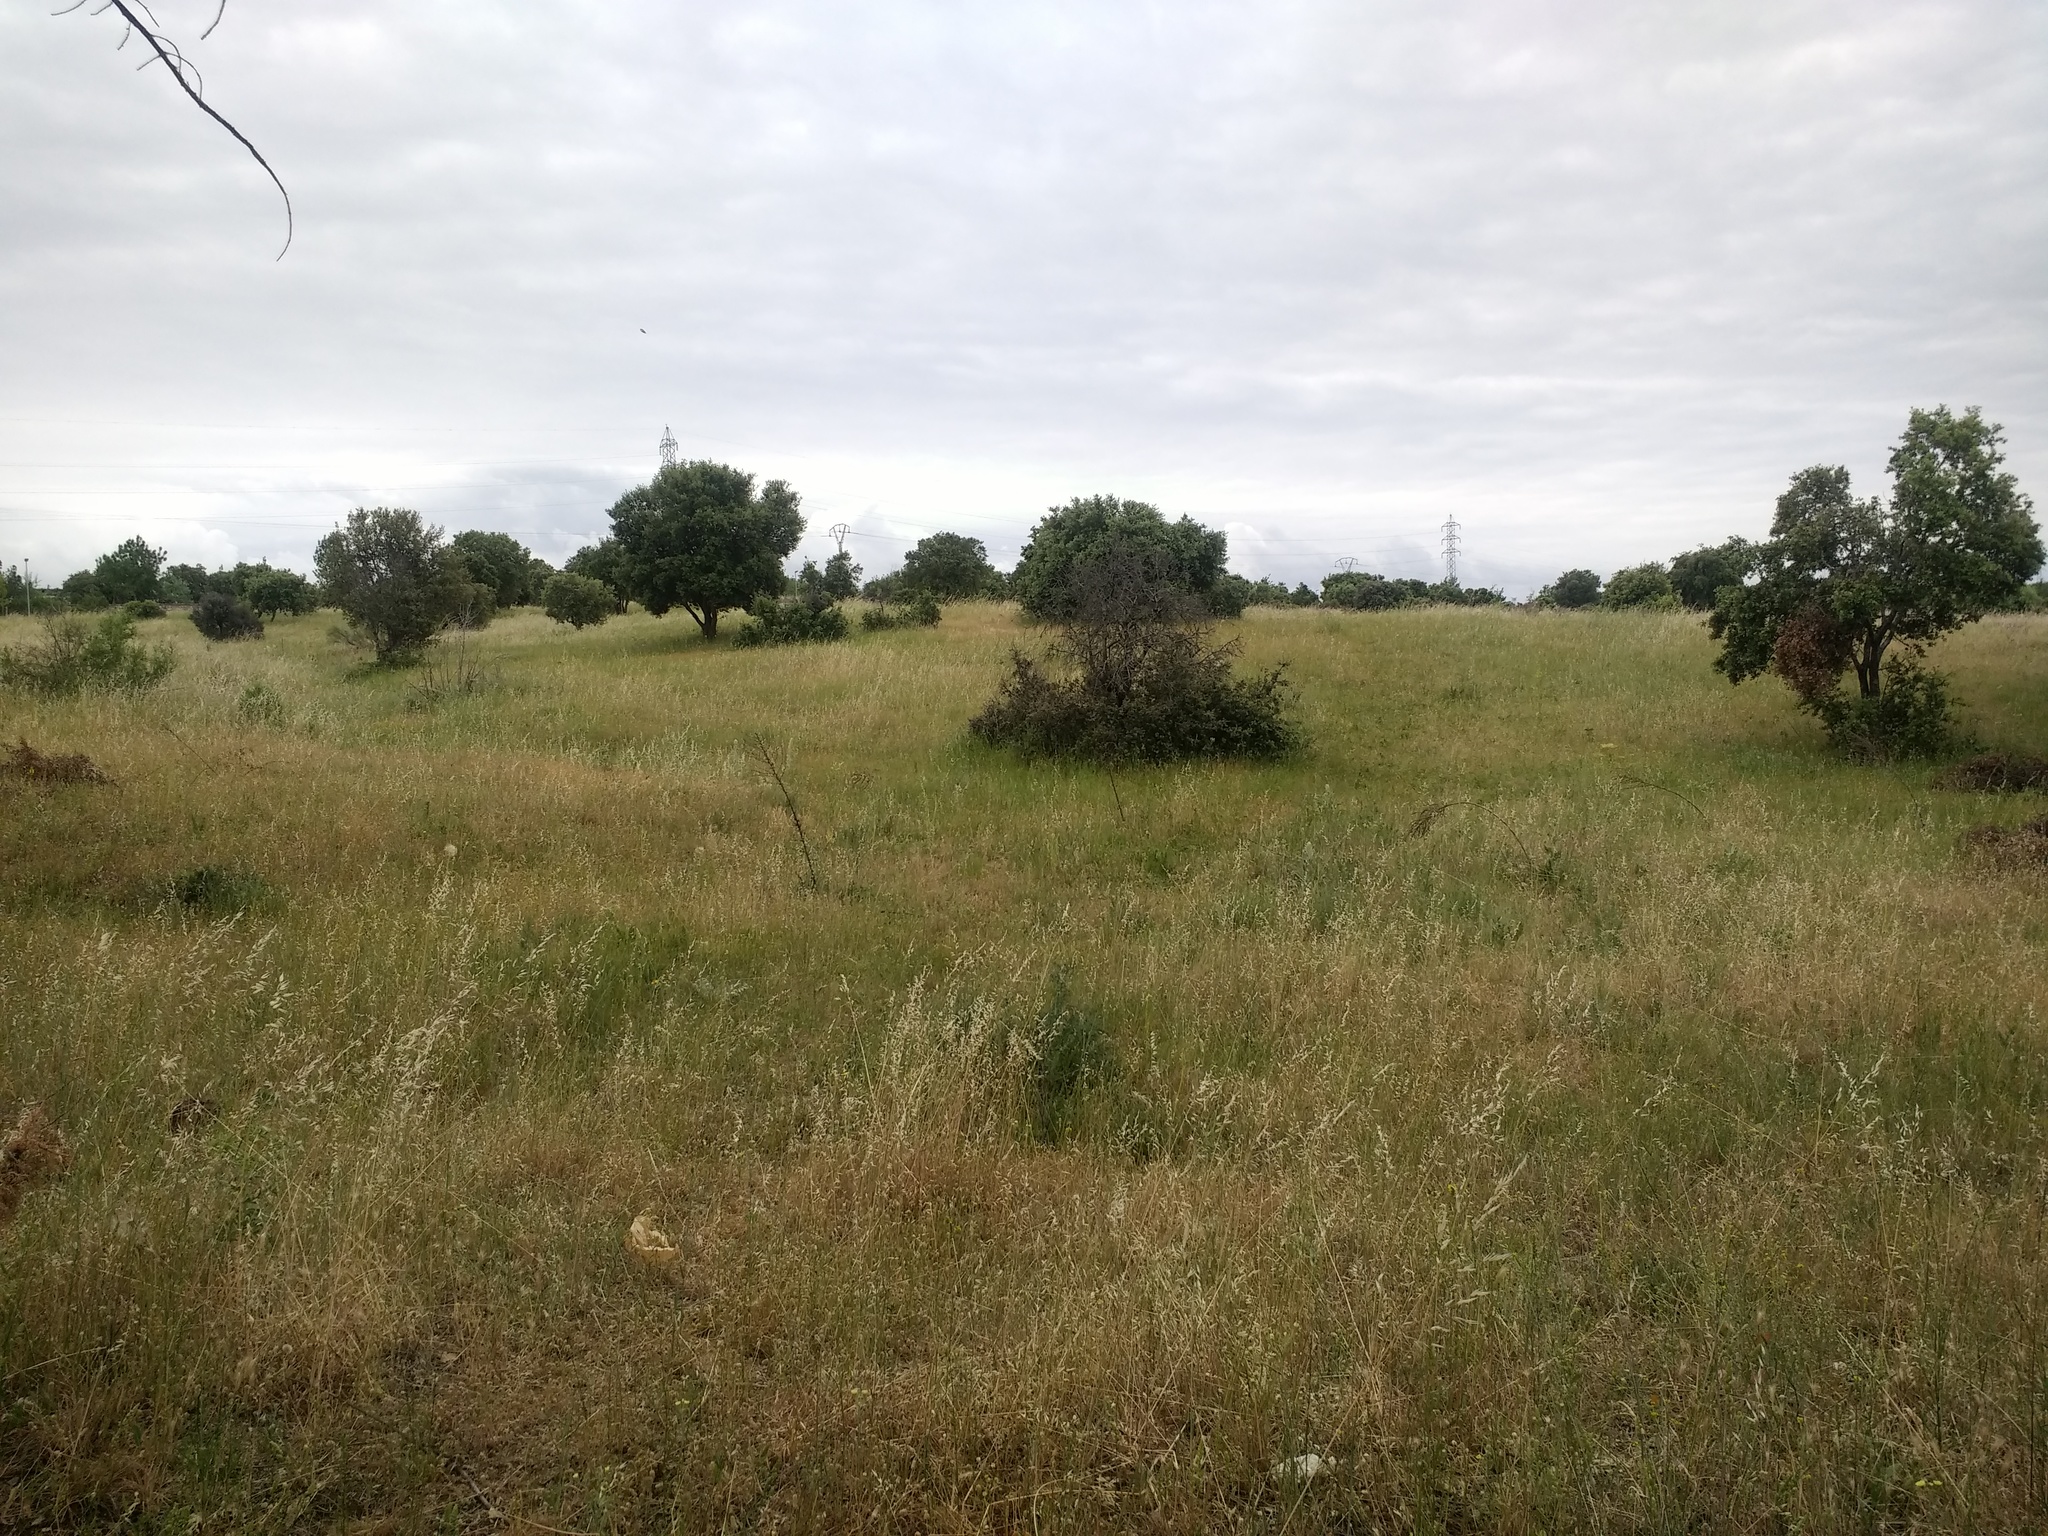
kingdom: Plantae
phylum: Tracheophyta
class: Magnoliopsida
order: Fagales
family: Fagaceae
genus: Quercus
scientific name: Quercus rotundifolia
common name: Holm oak
